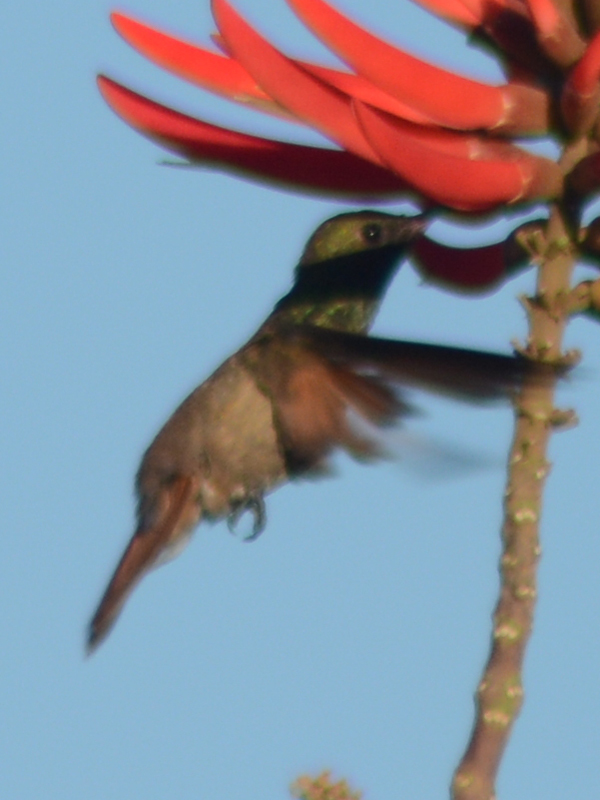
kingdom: Animalia
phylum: Chordata
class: Aves
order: Apodiformes
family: Trochilidae
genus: Saucerottia
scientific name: Saucerottia beryllina
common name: Berylline hummingbird
